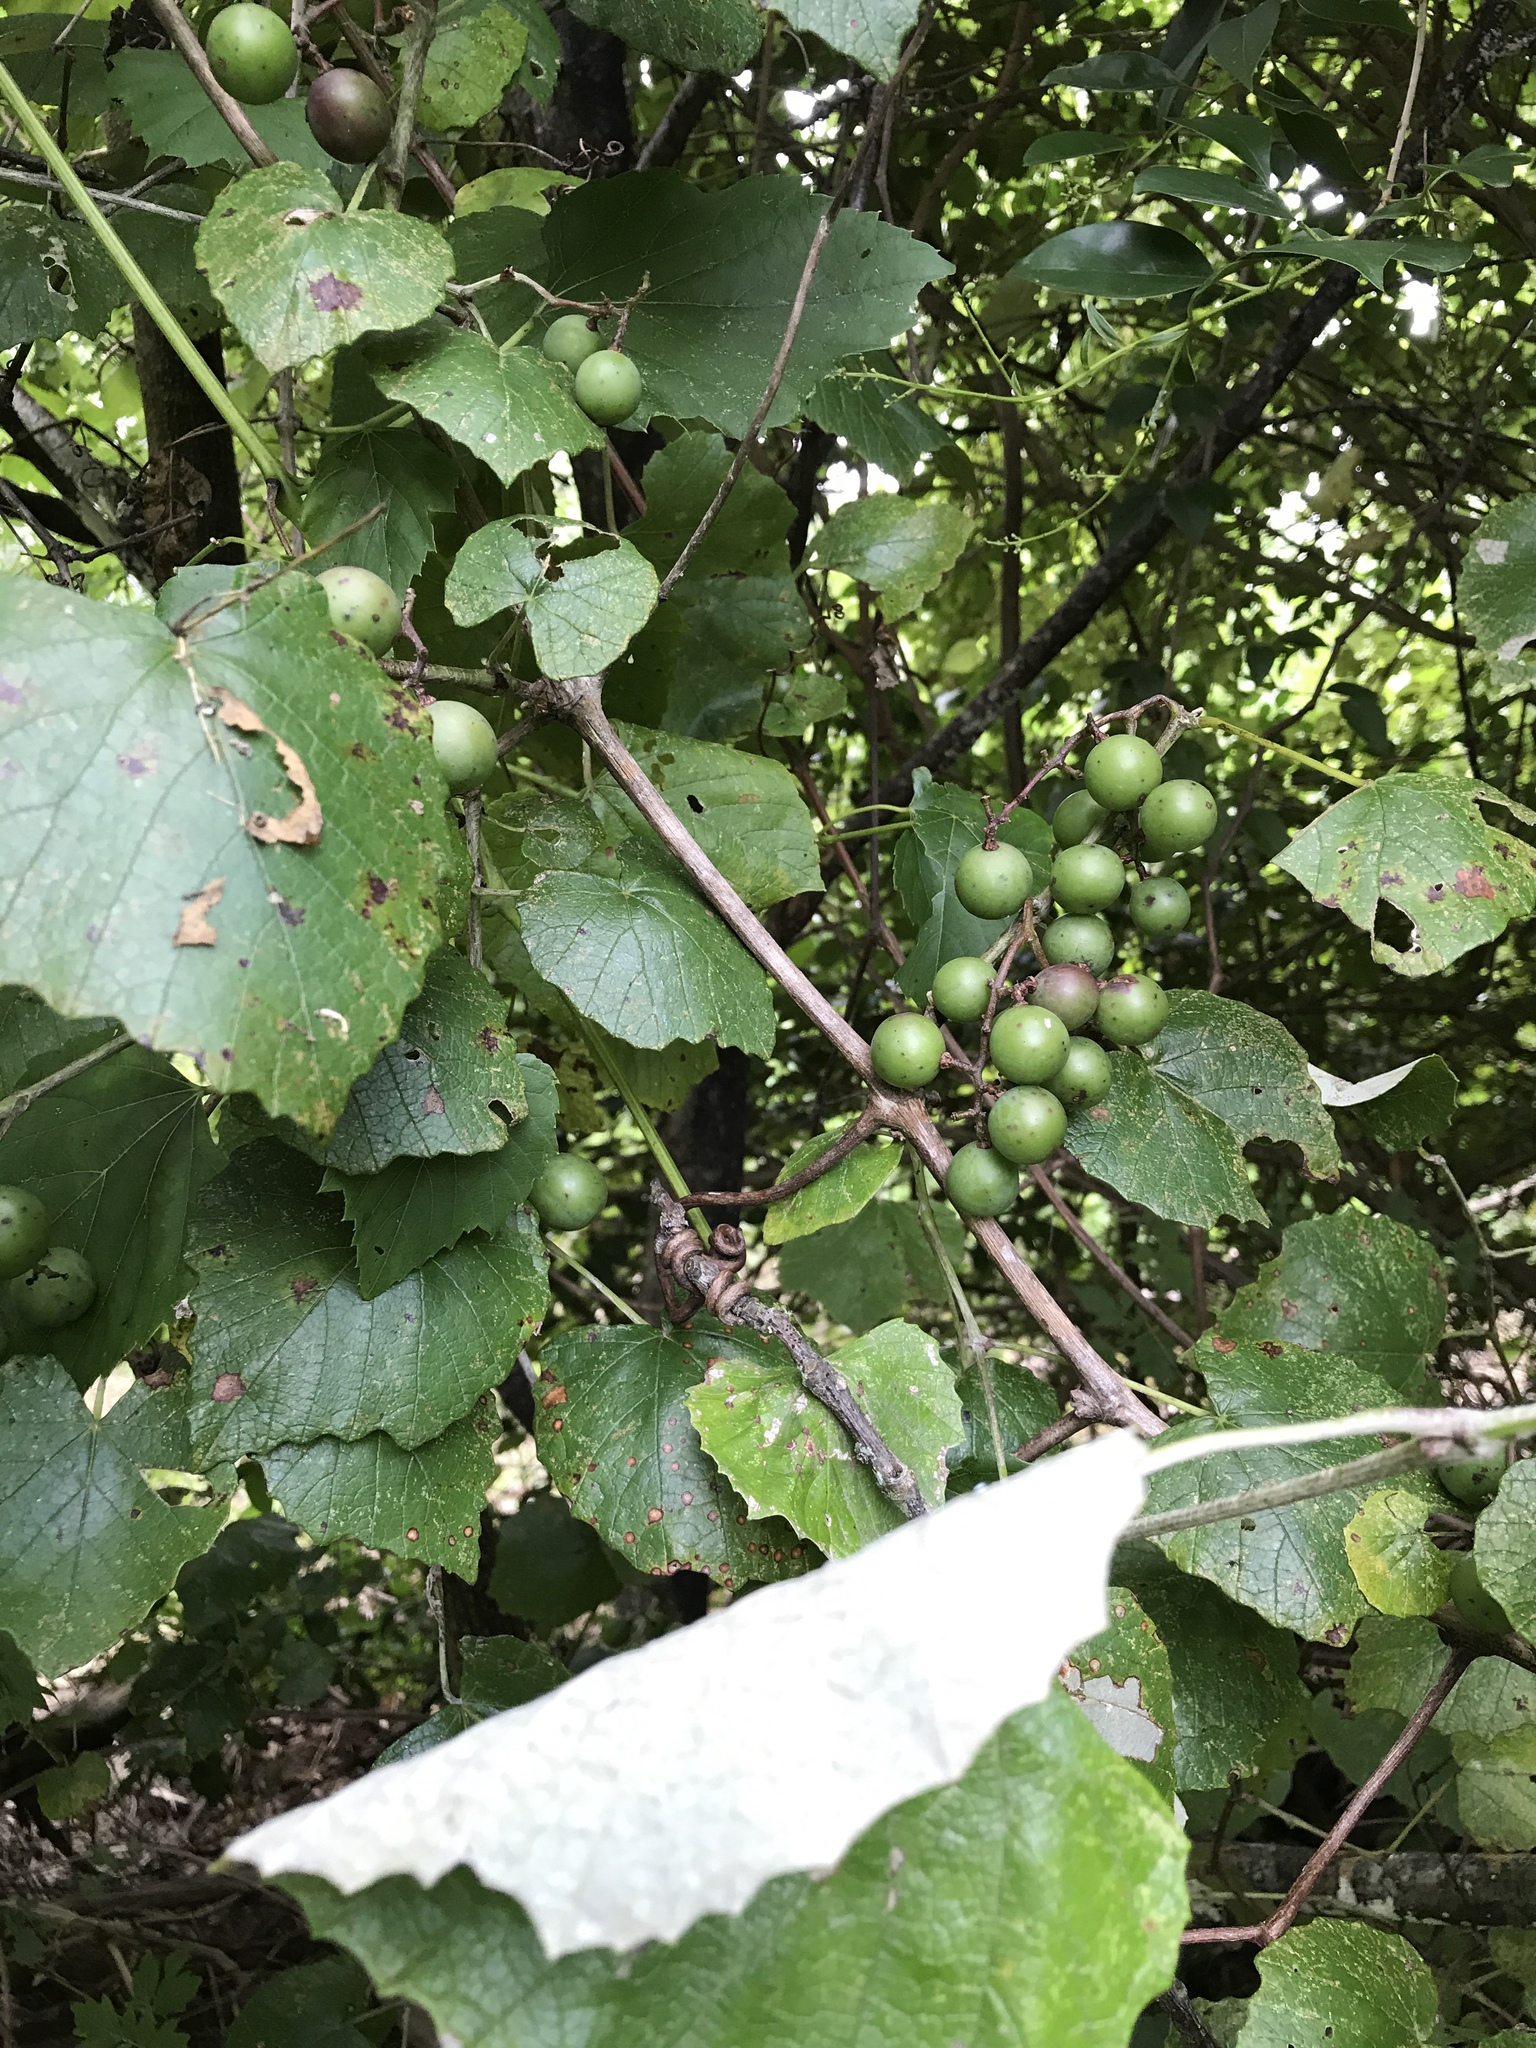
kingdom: Plantae
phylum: Tracheophyta
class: Magnoliopsida
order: Vitales
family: Vitaceae
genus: Vitis
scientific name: Vitis mustangensis
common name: Mustang grape
